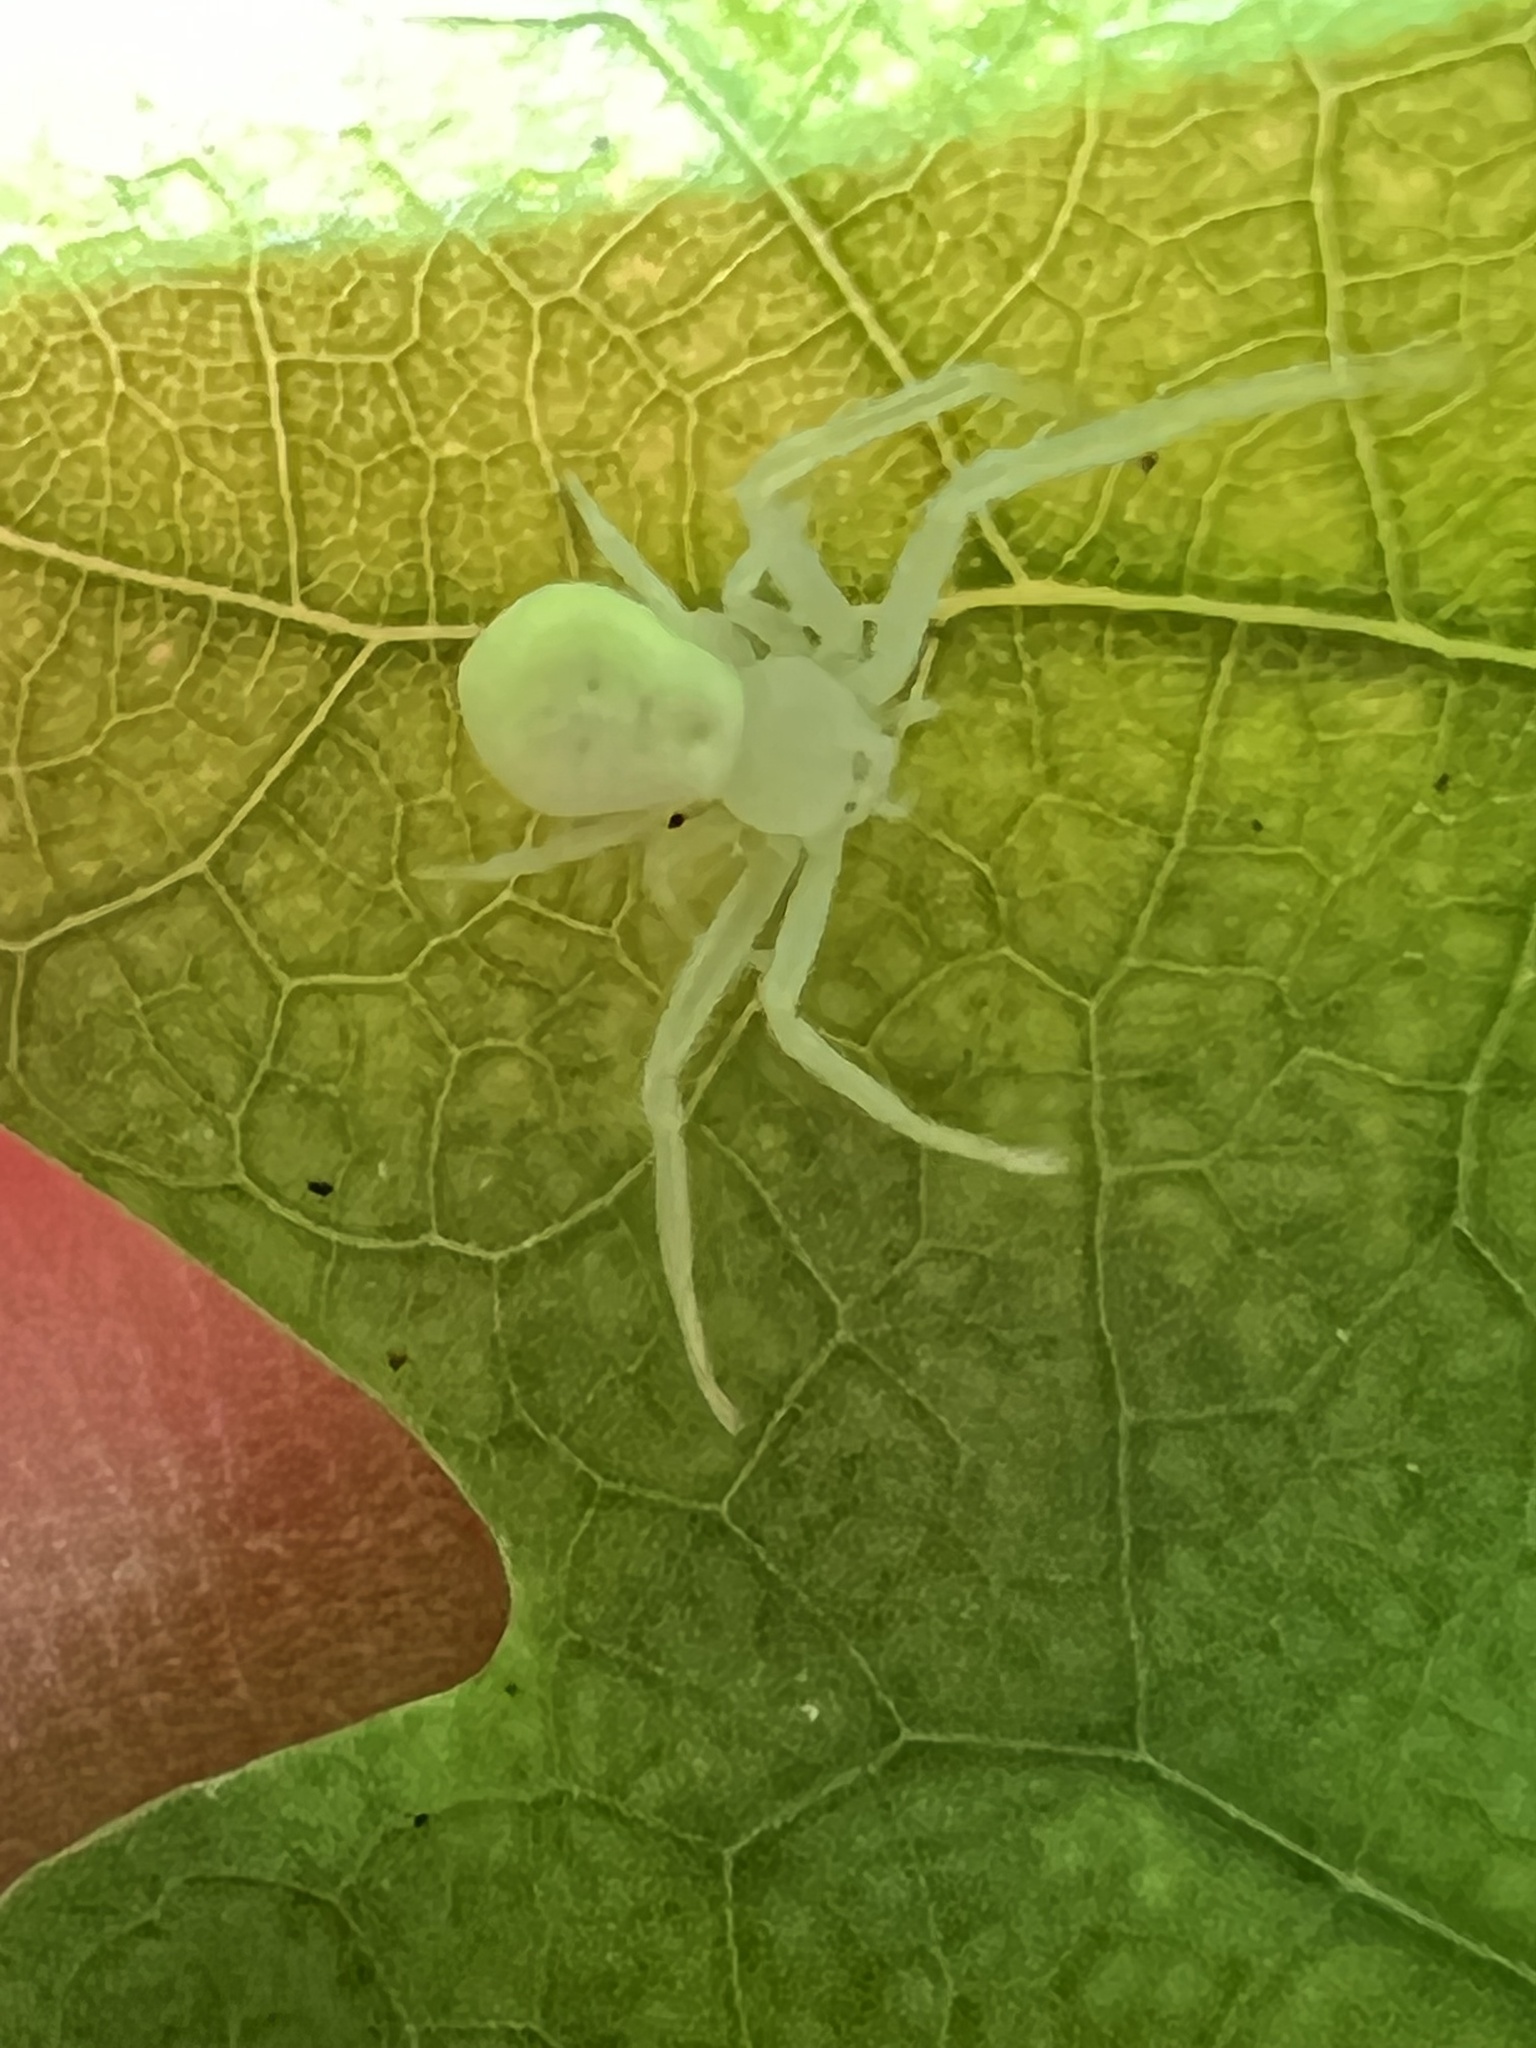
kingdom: Animalia
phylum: Arthropoda
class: Arachnida
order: Araneae
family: Thomisidae
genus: Misumessus
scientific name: Misumessus oblongus
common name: American green crab spider
